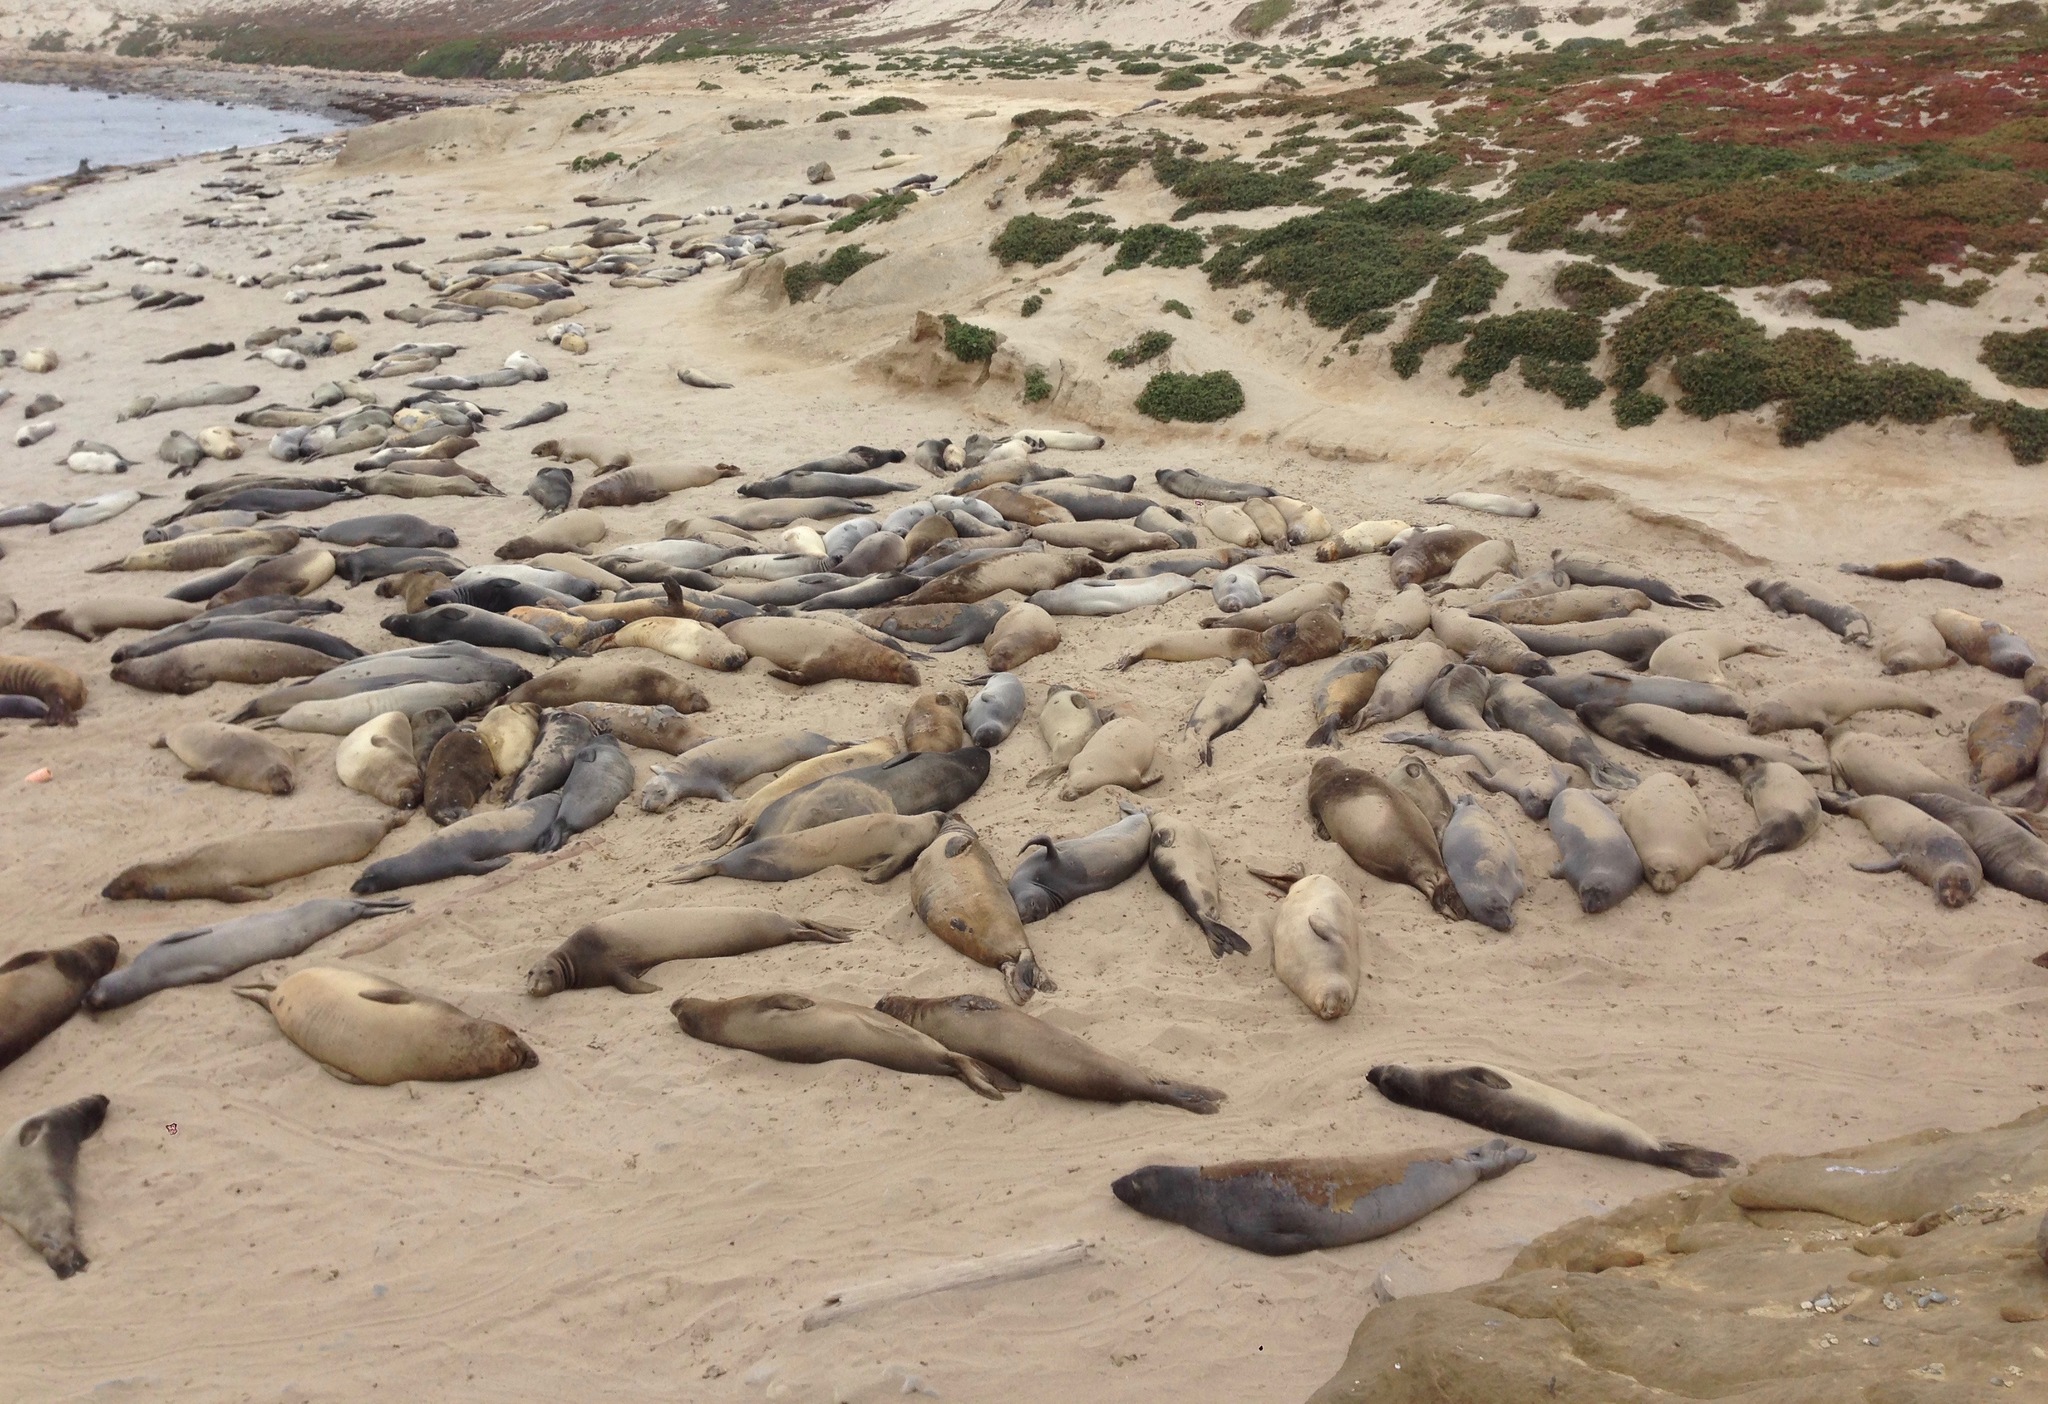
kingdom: Animalia
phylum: Chordata
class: Mammalia
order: Carnivora
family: Phocidae
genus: Mirounga
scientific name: Mirounga angustirostris
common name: Northern elephant seal
